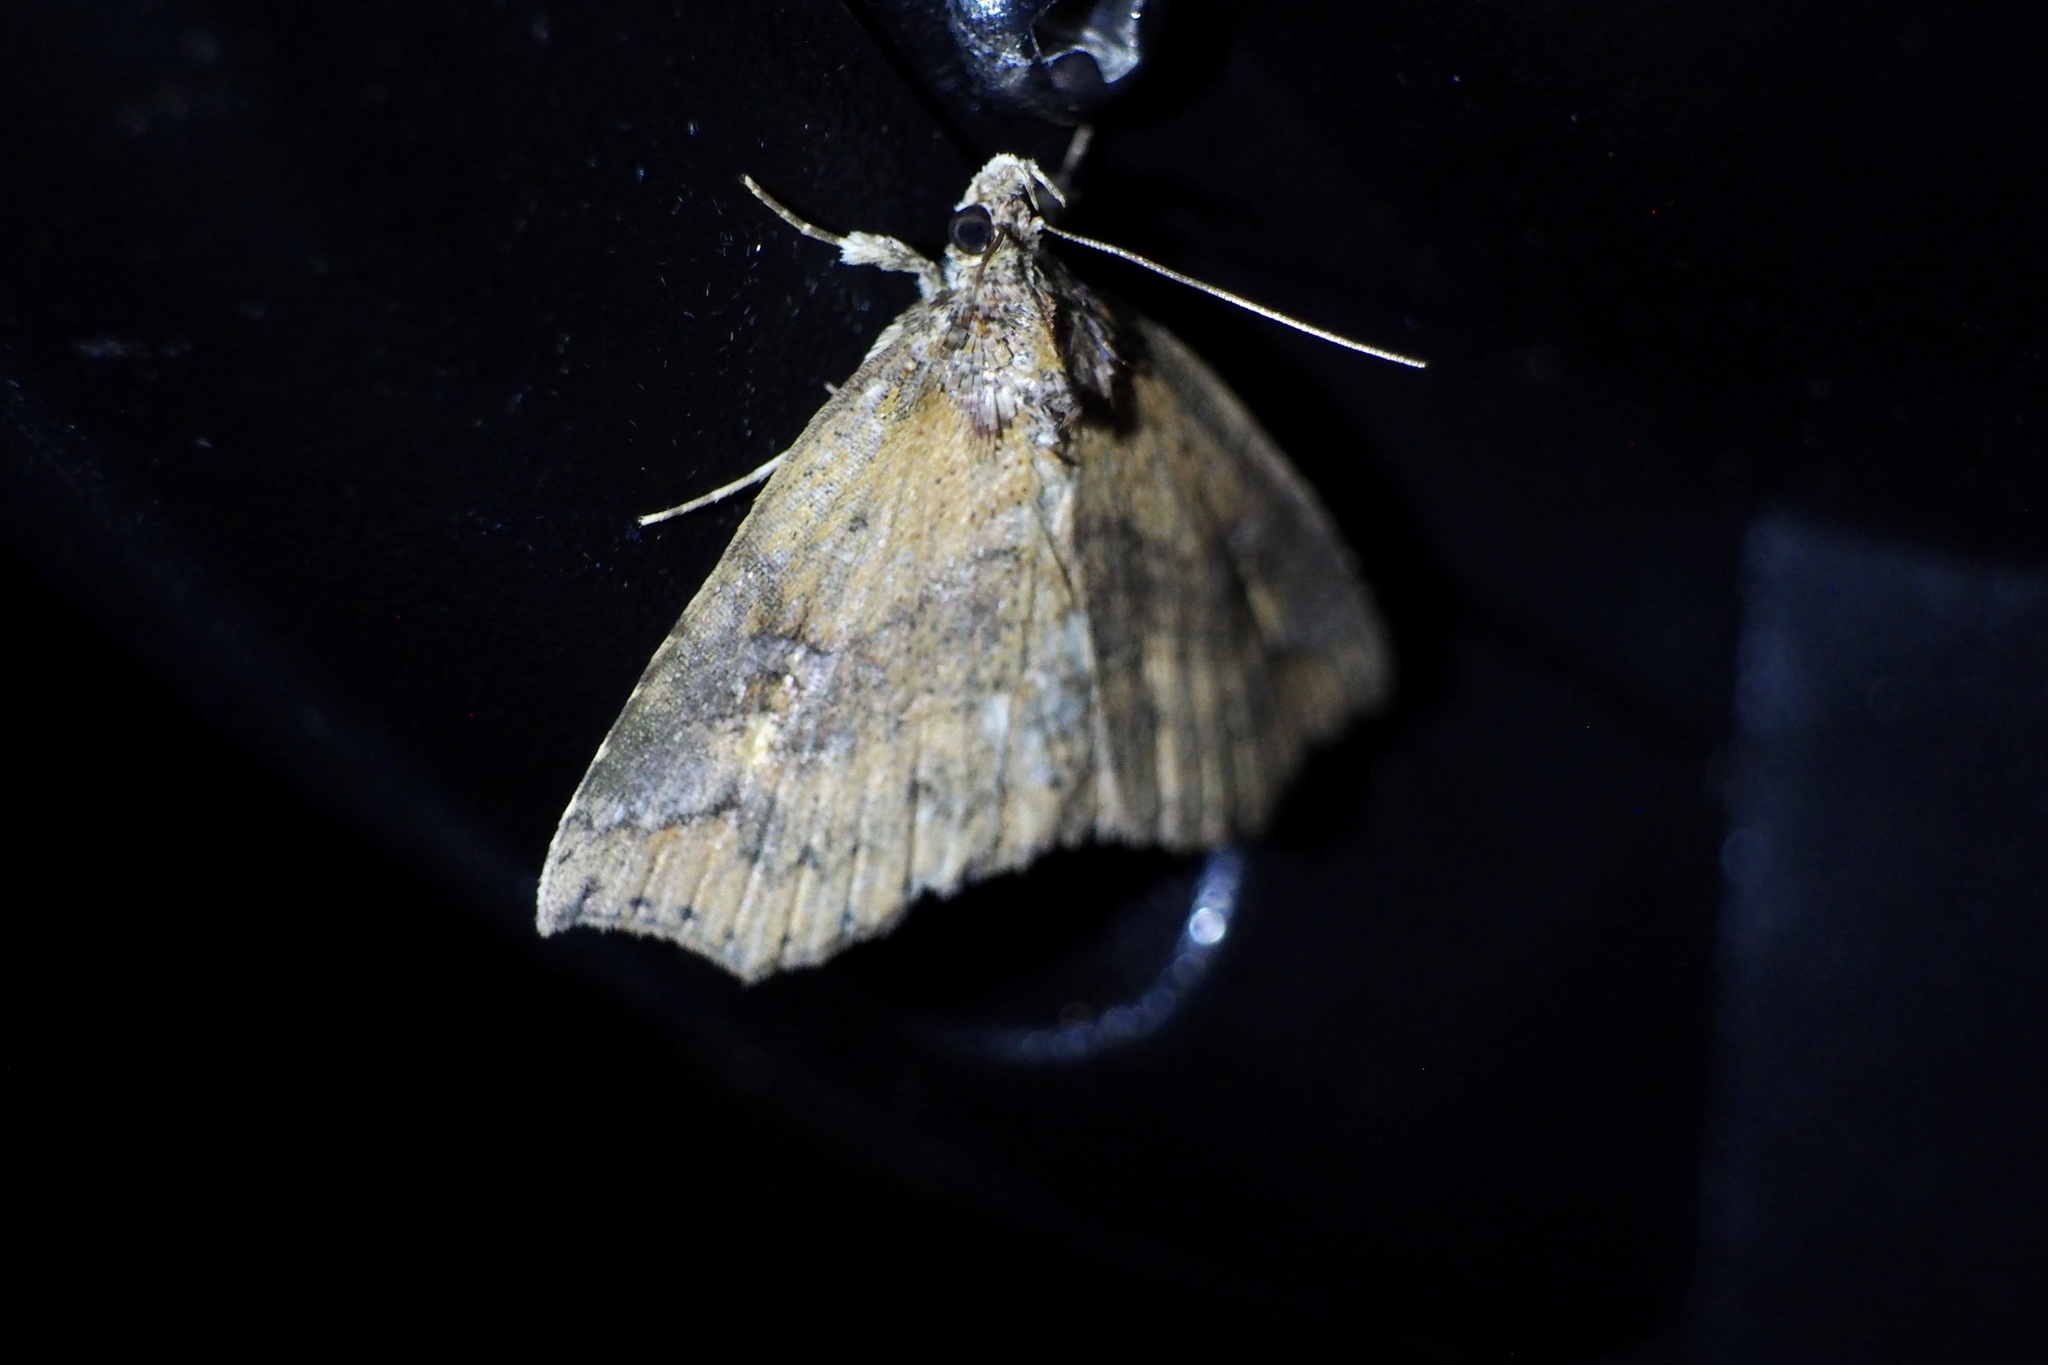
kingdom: Animalia
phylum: Arthropoda
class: Insecta
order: Lepidoptera
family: Erebidae
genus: Tamba
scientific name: Tamba corealis
